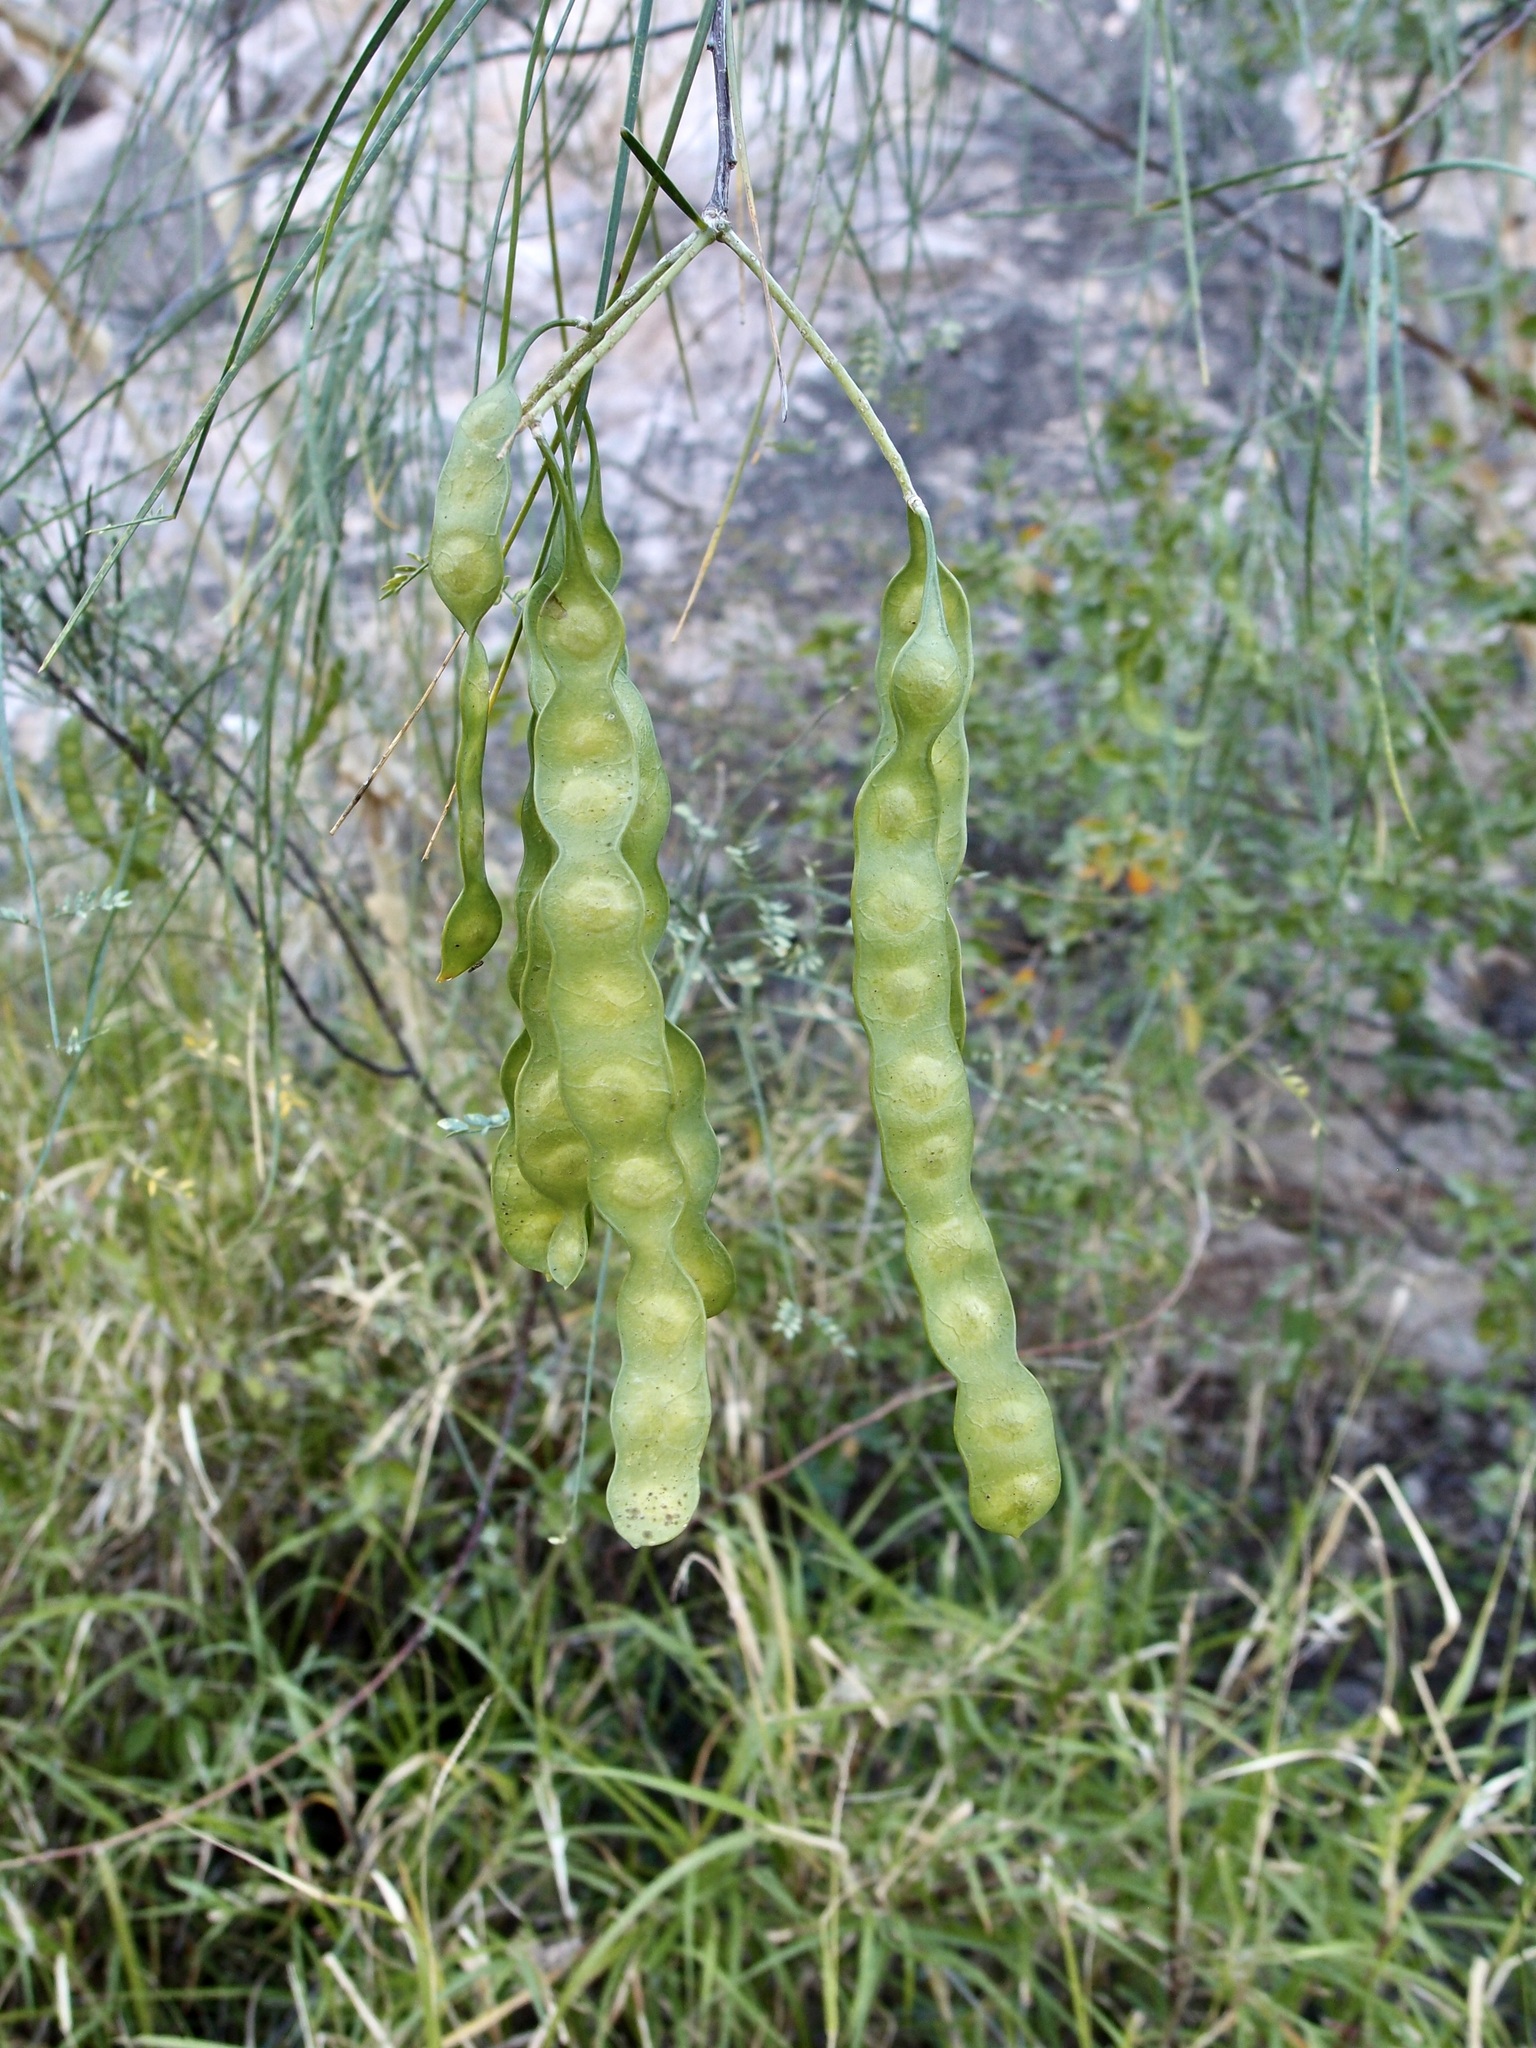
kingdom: Plantae
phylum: Tracheophyta
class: Magnoliopsida
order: Fabales
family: Fabaceae
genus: Mariosousa
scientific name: Mariosousa heterophylla
